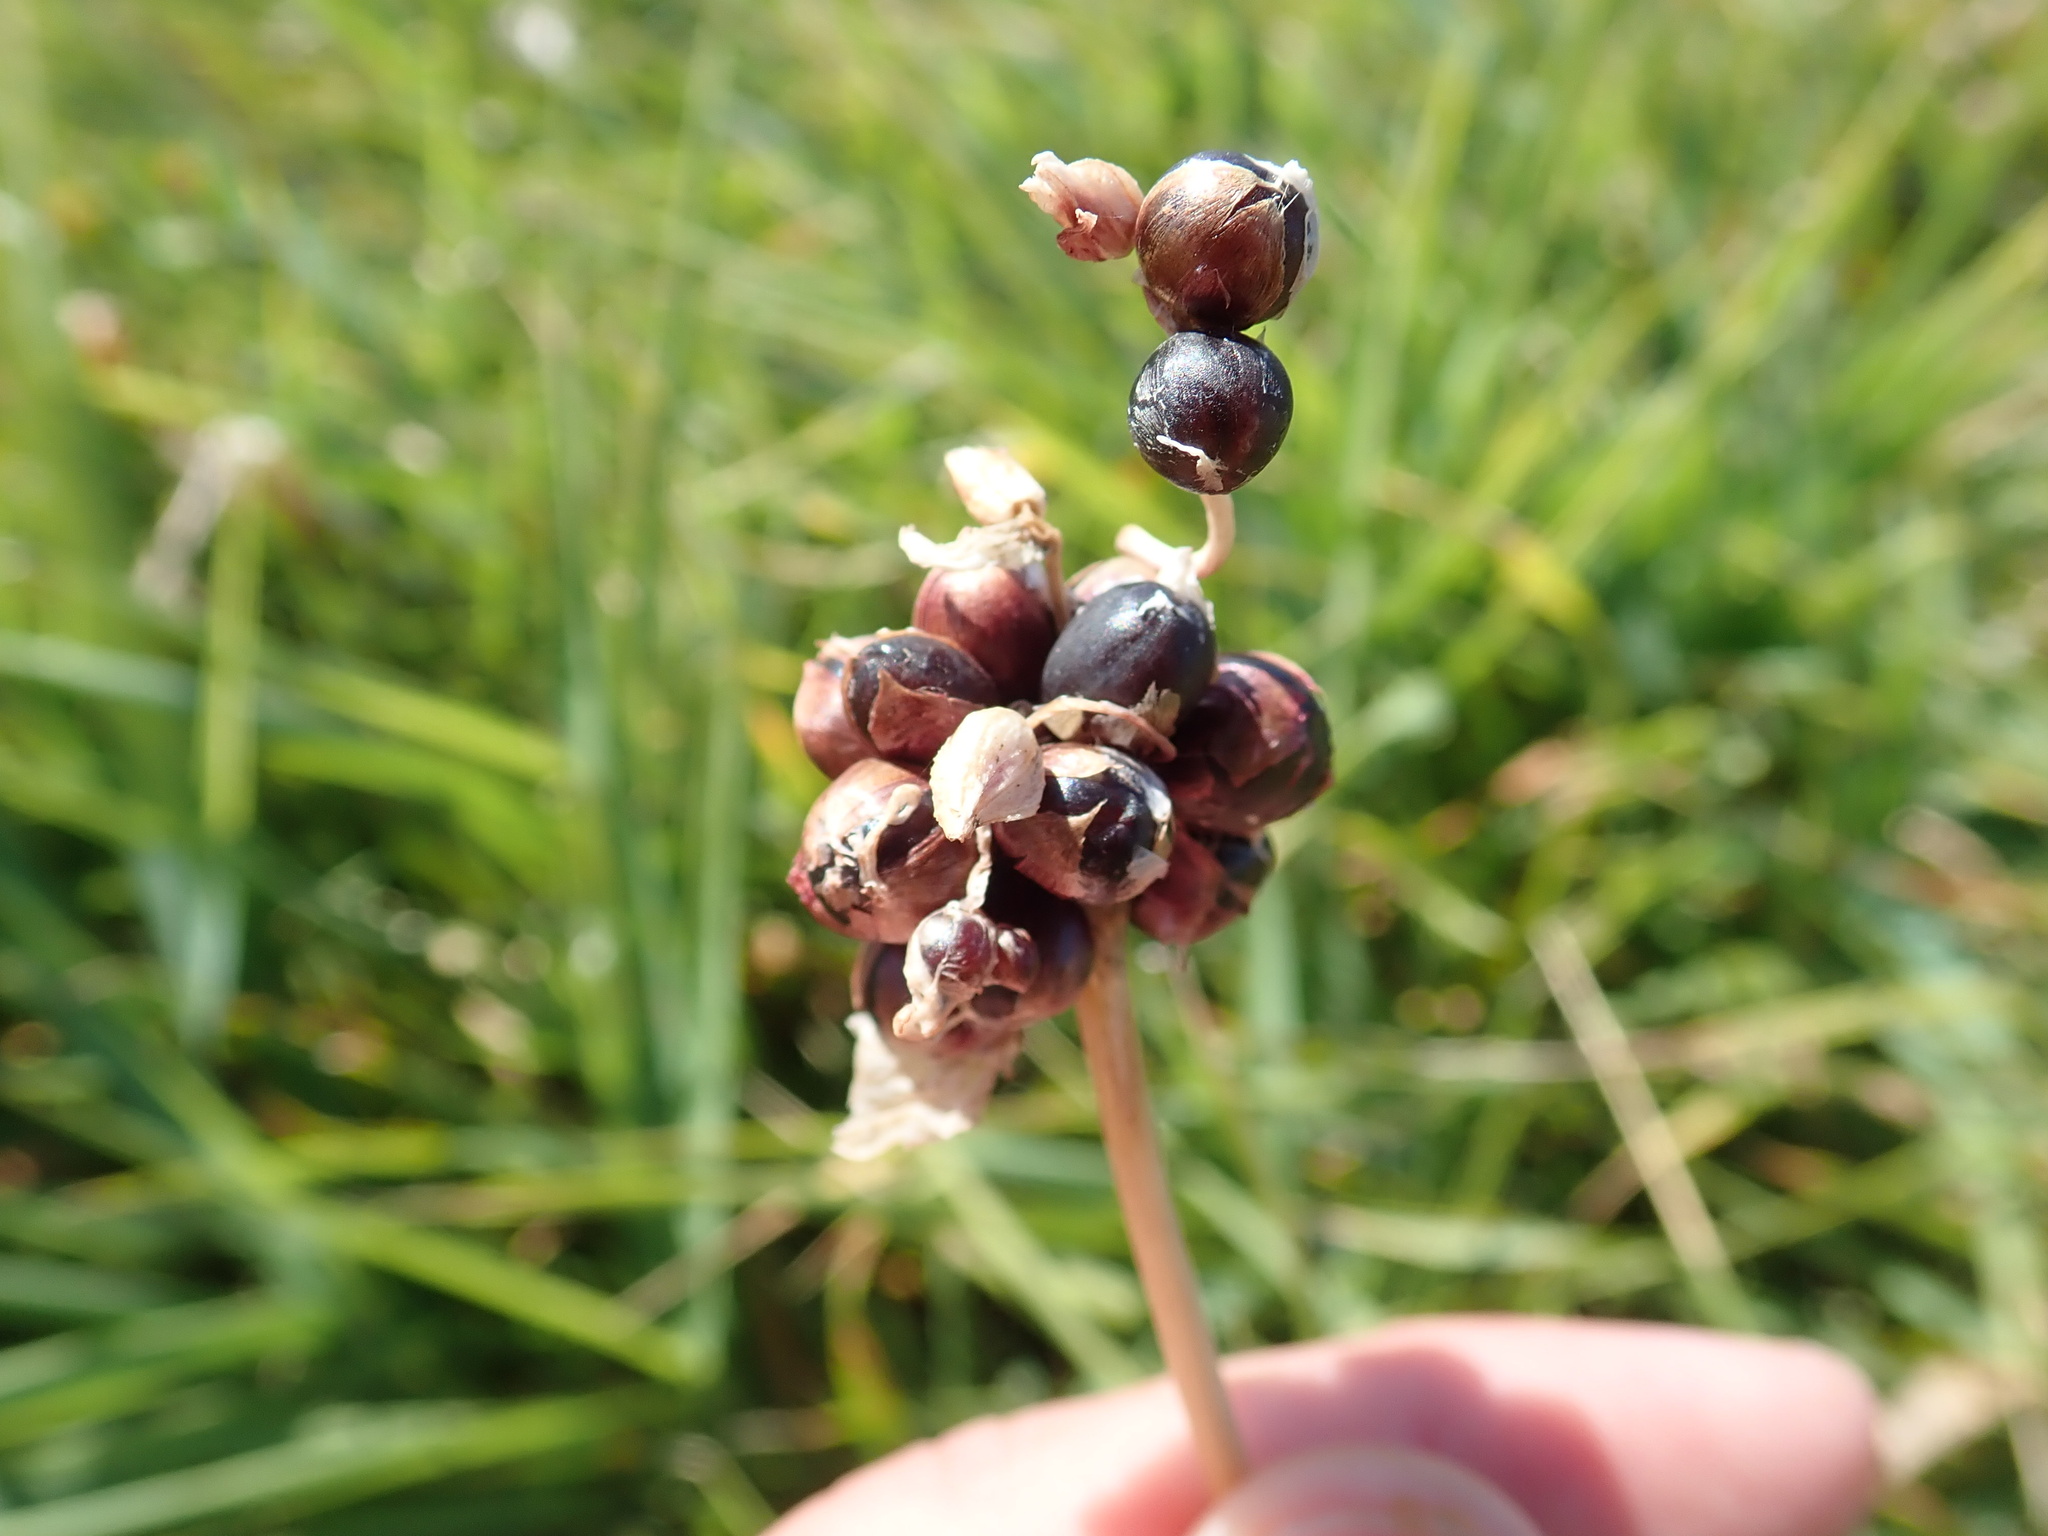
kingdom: Plantae
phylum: Tracheophyta
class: Liliopsida
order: Asparagales
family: Amaryllidaceae
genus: Allium
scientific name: Allium scorodoprasum
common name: Sand leek
